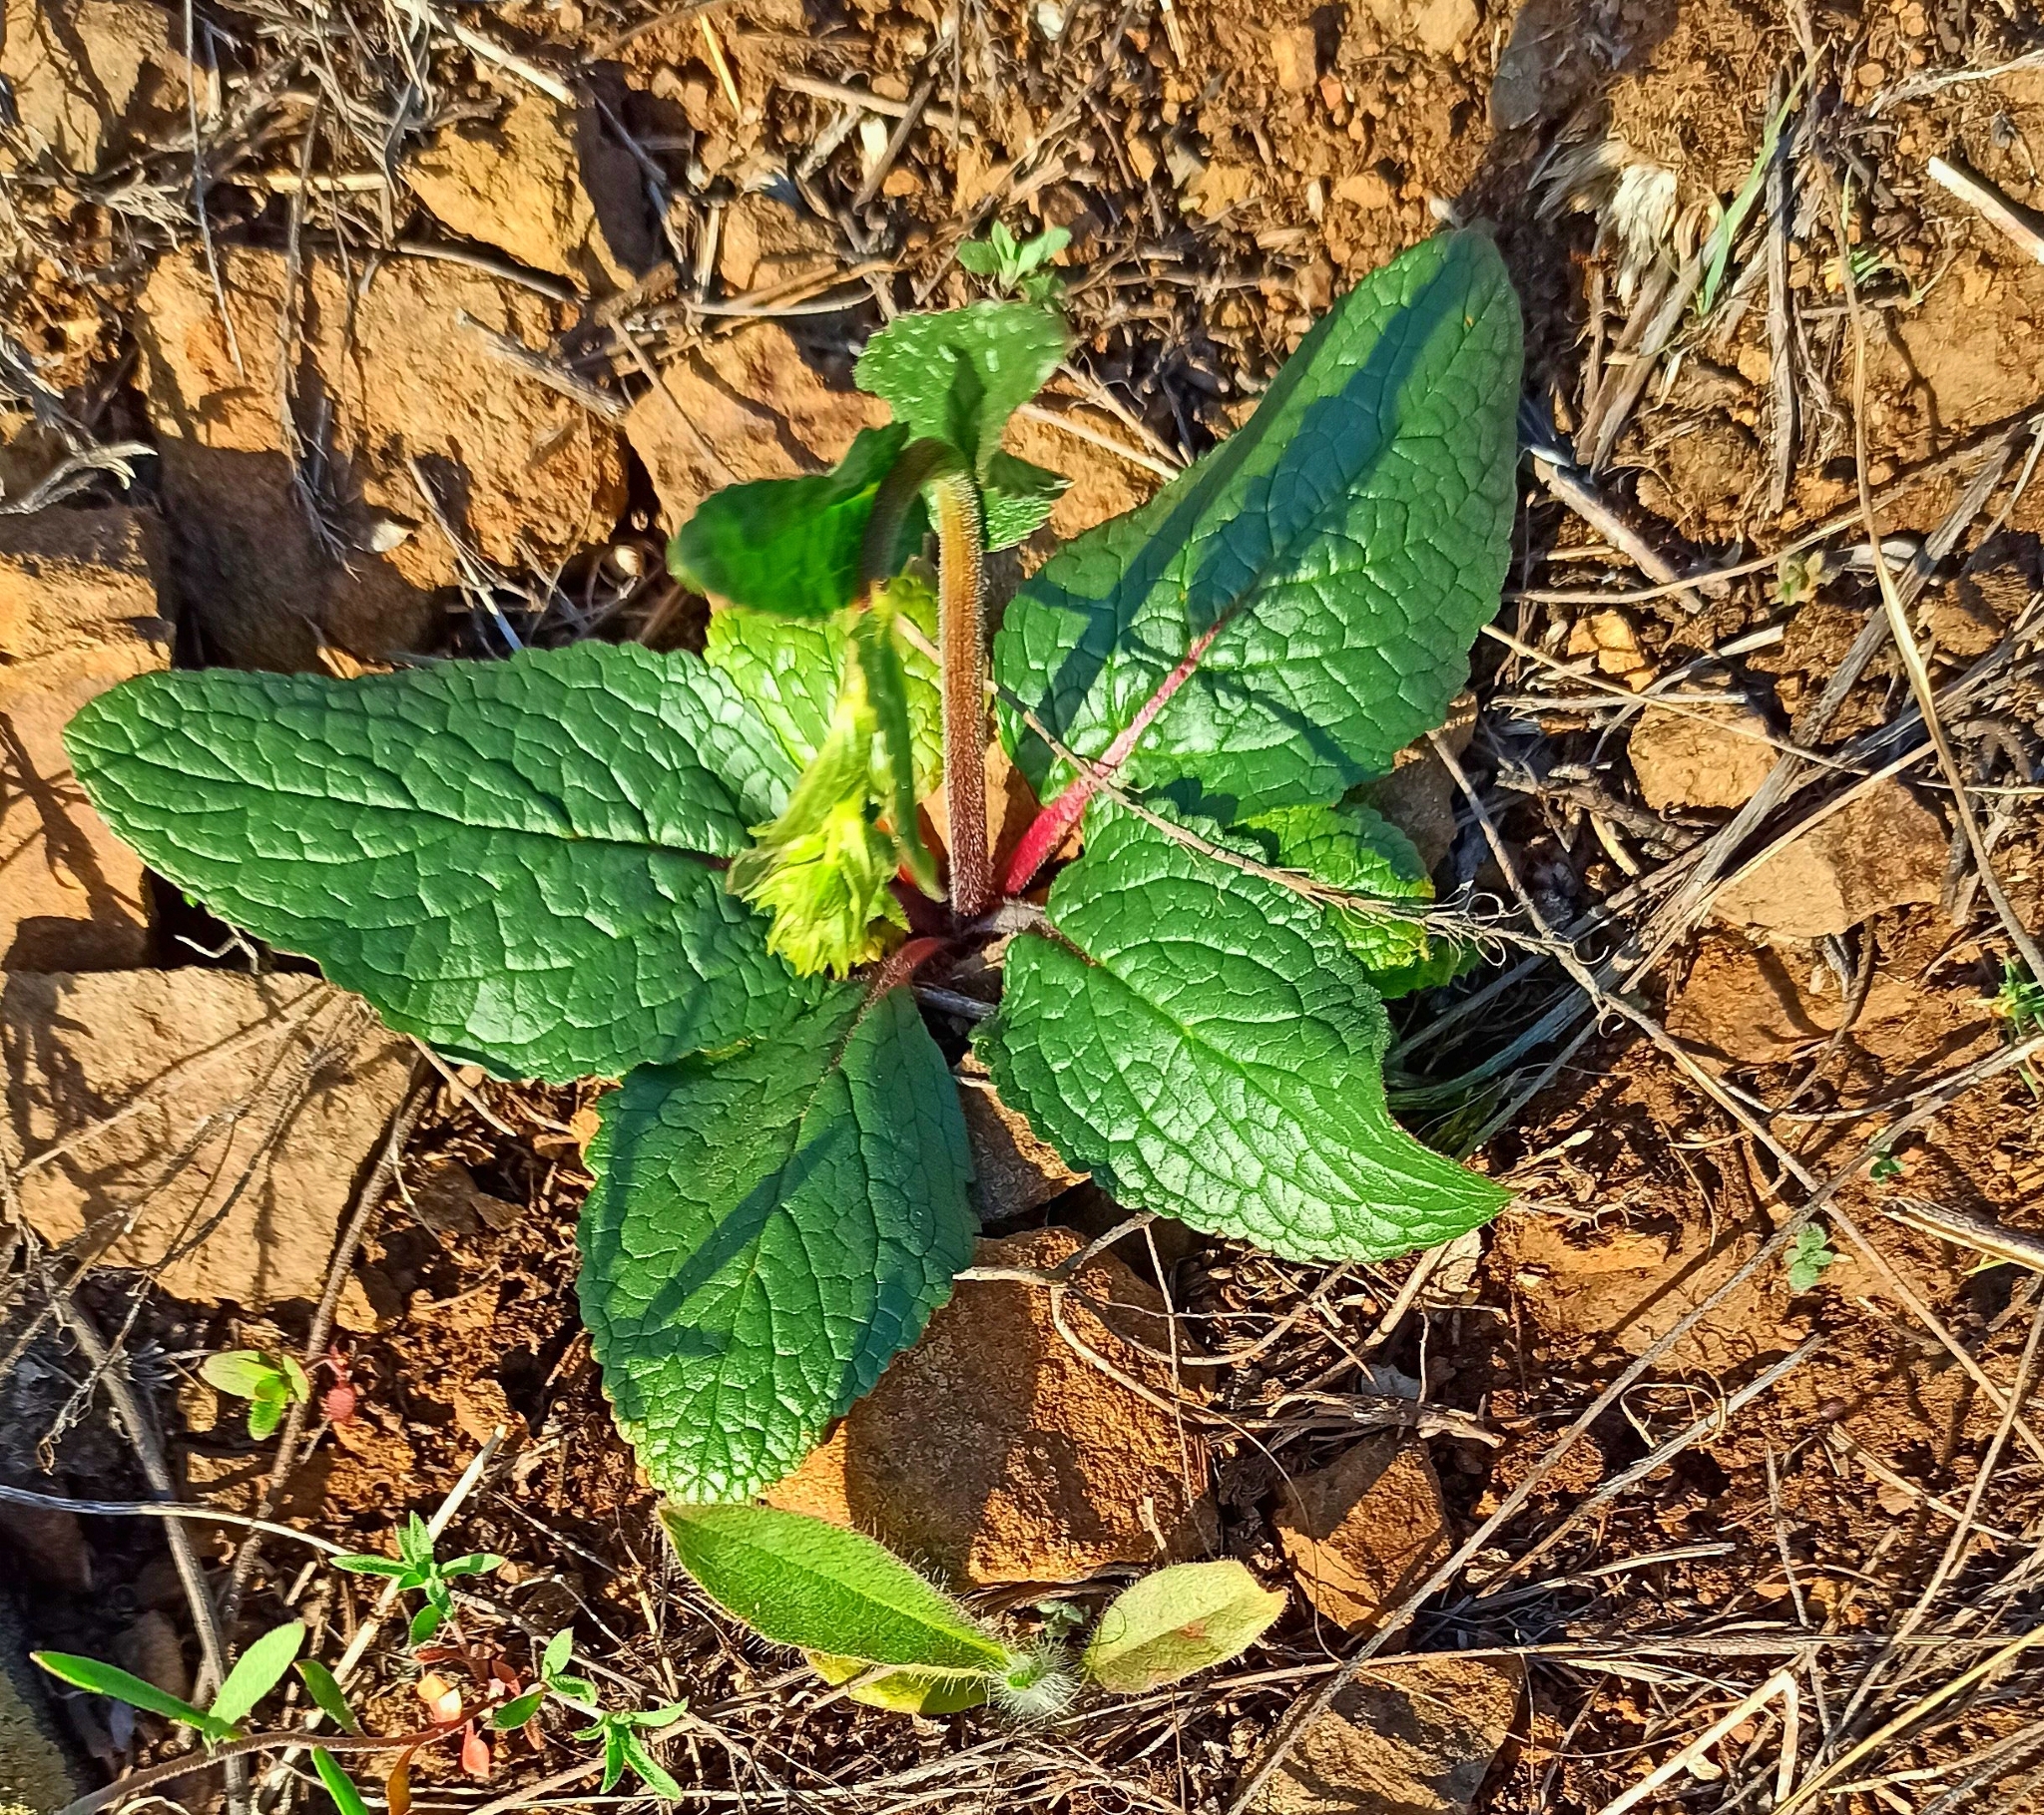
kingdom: Plantae
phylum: Tracheophyta
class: Magnoliopsida
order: Lamiales
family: Scrophulariaceae
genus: Verbascum
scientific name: Verbascum phoeniceum
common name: Purple mullein
